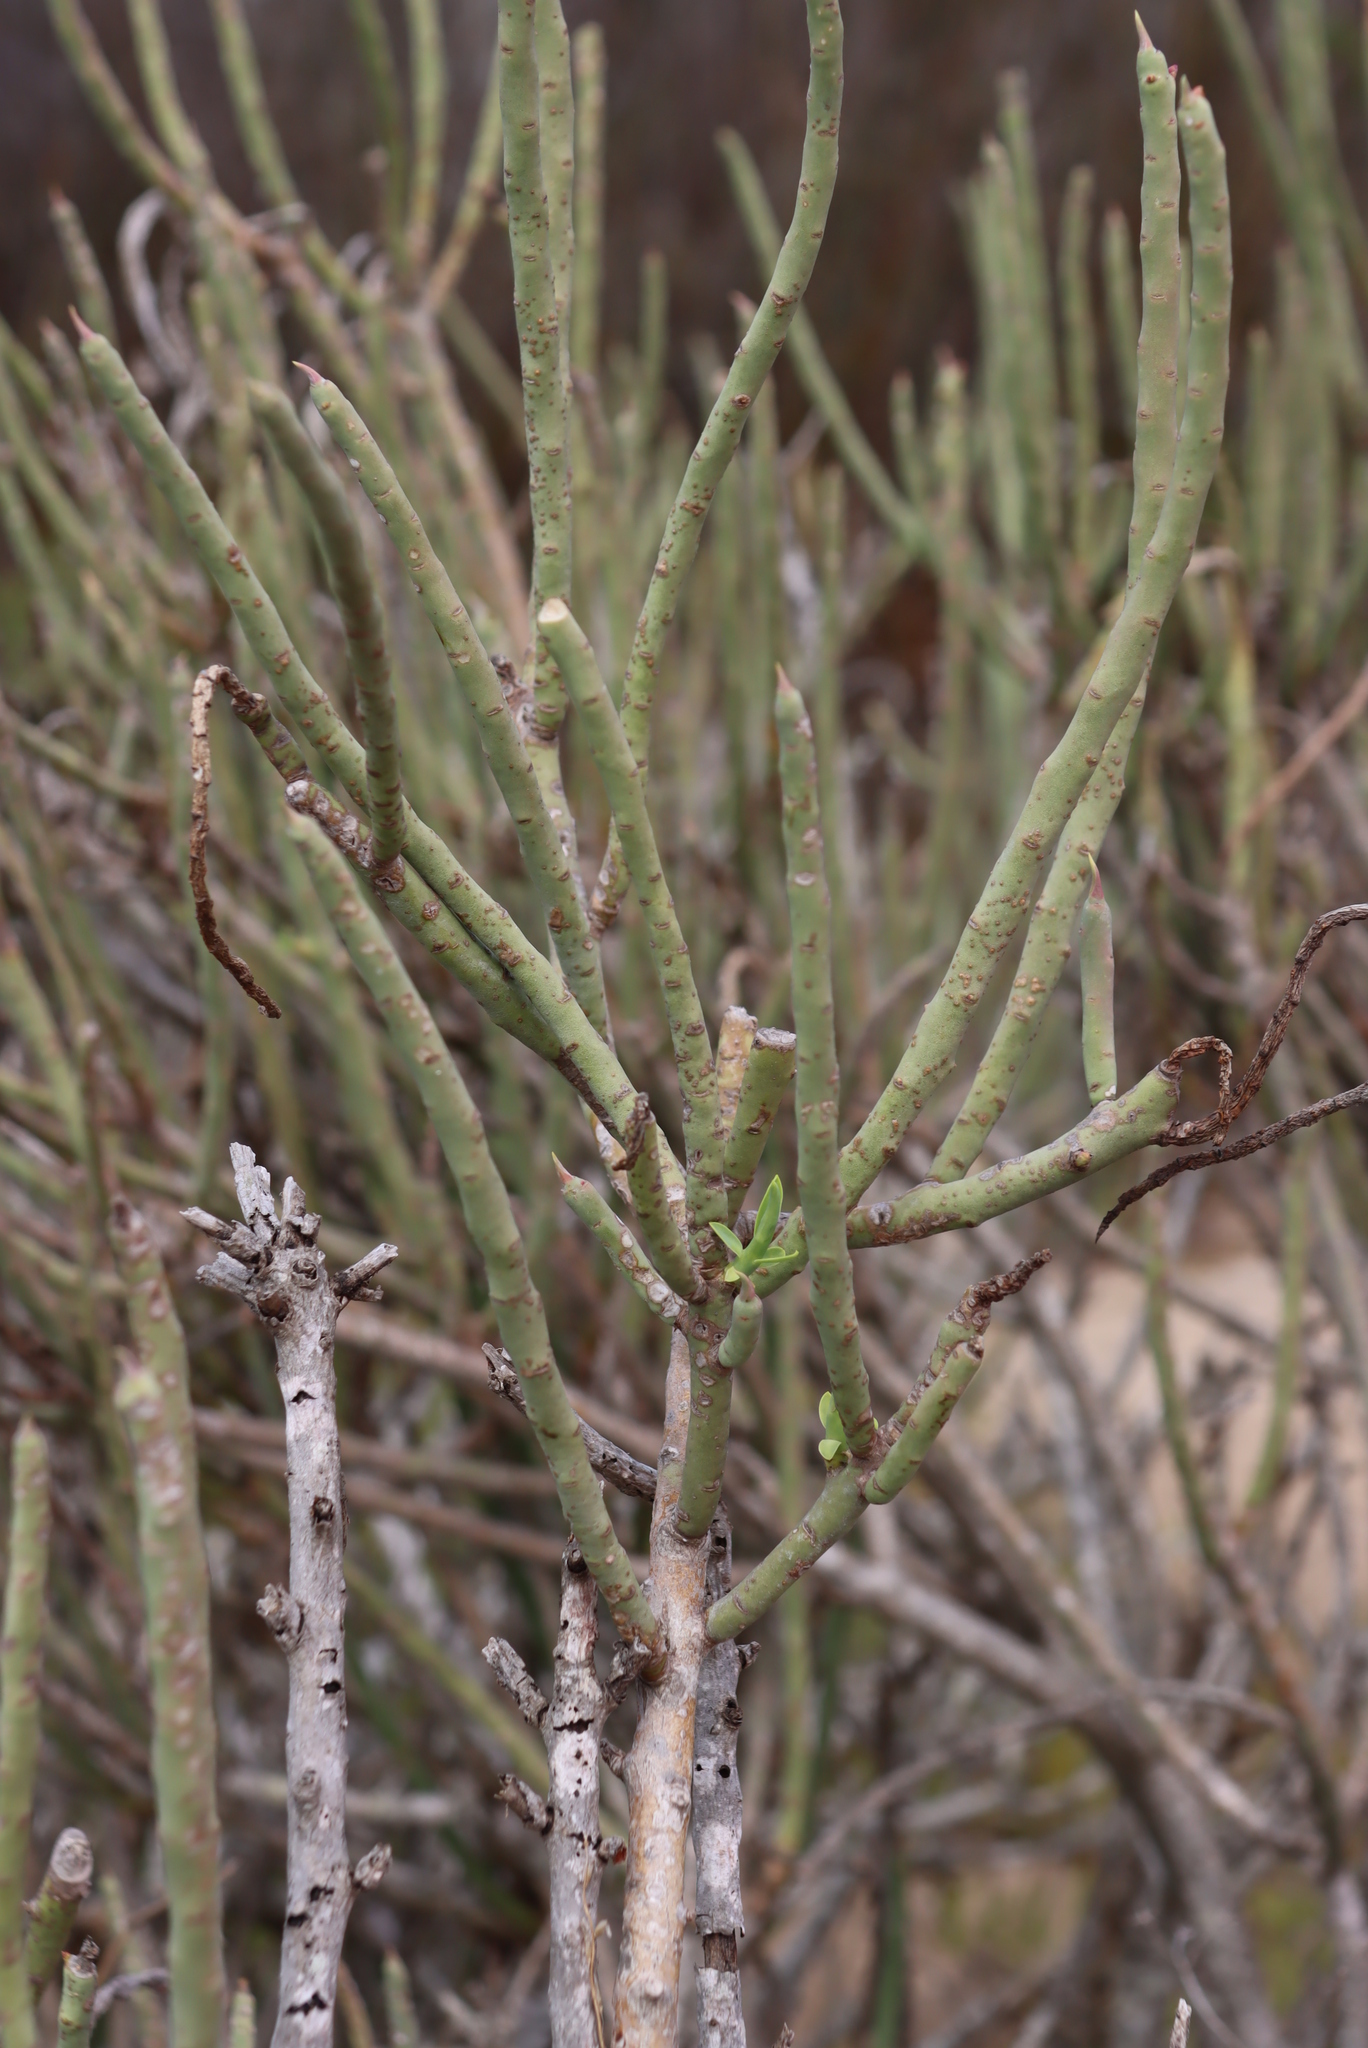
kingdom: Plantae
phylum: Tracheophyta
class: Magnoliopsida
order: Malpighiales
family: Euphorbiaceae
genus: Euphorbia
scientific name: Euphorbia mauritanica
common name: Jackal's-food
